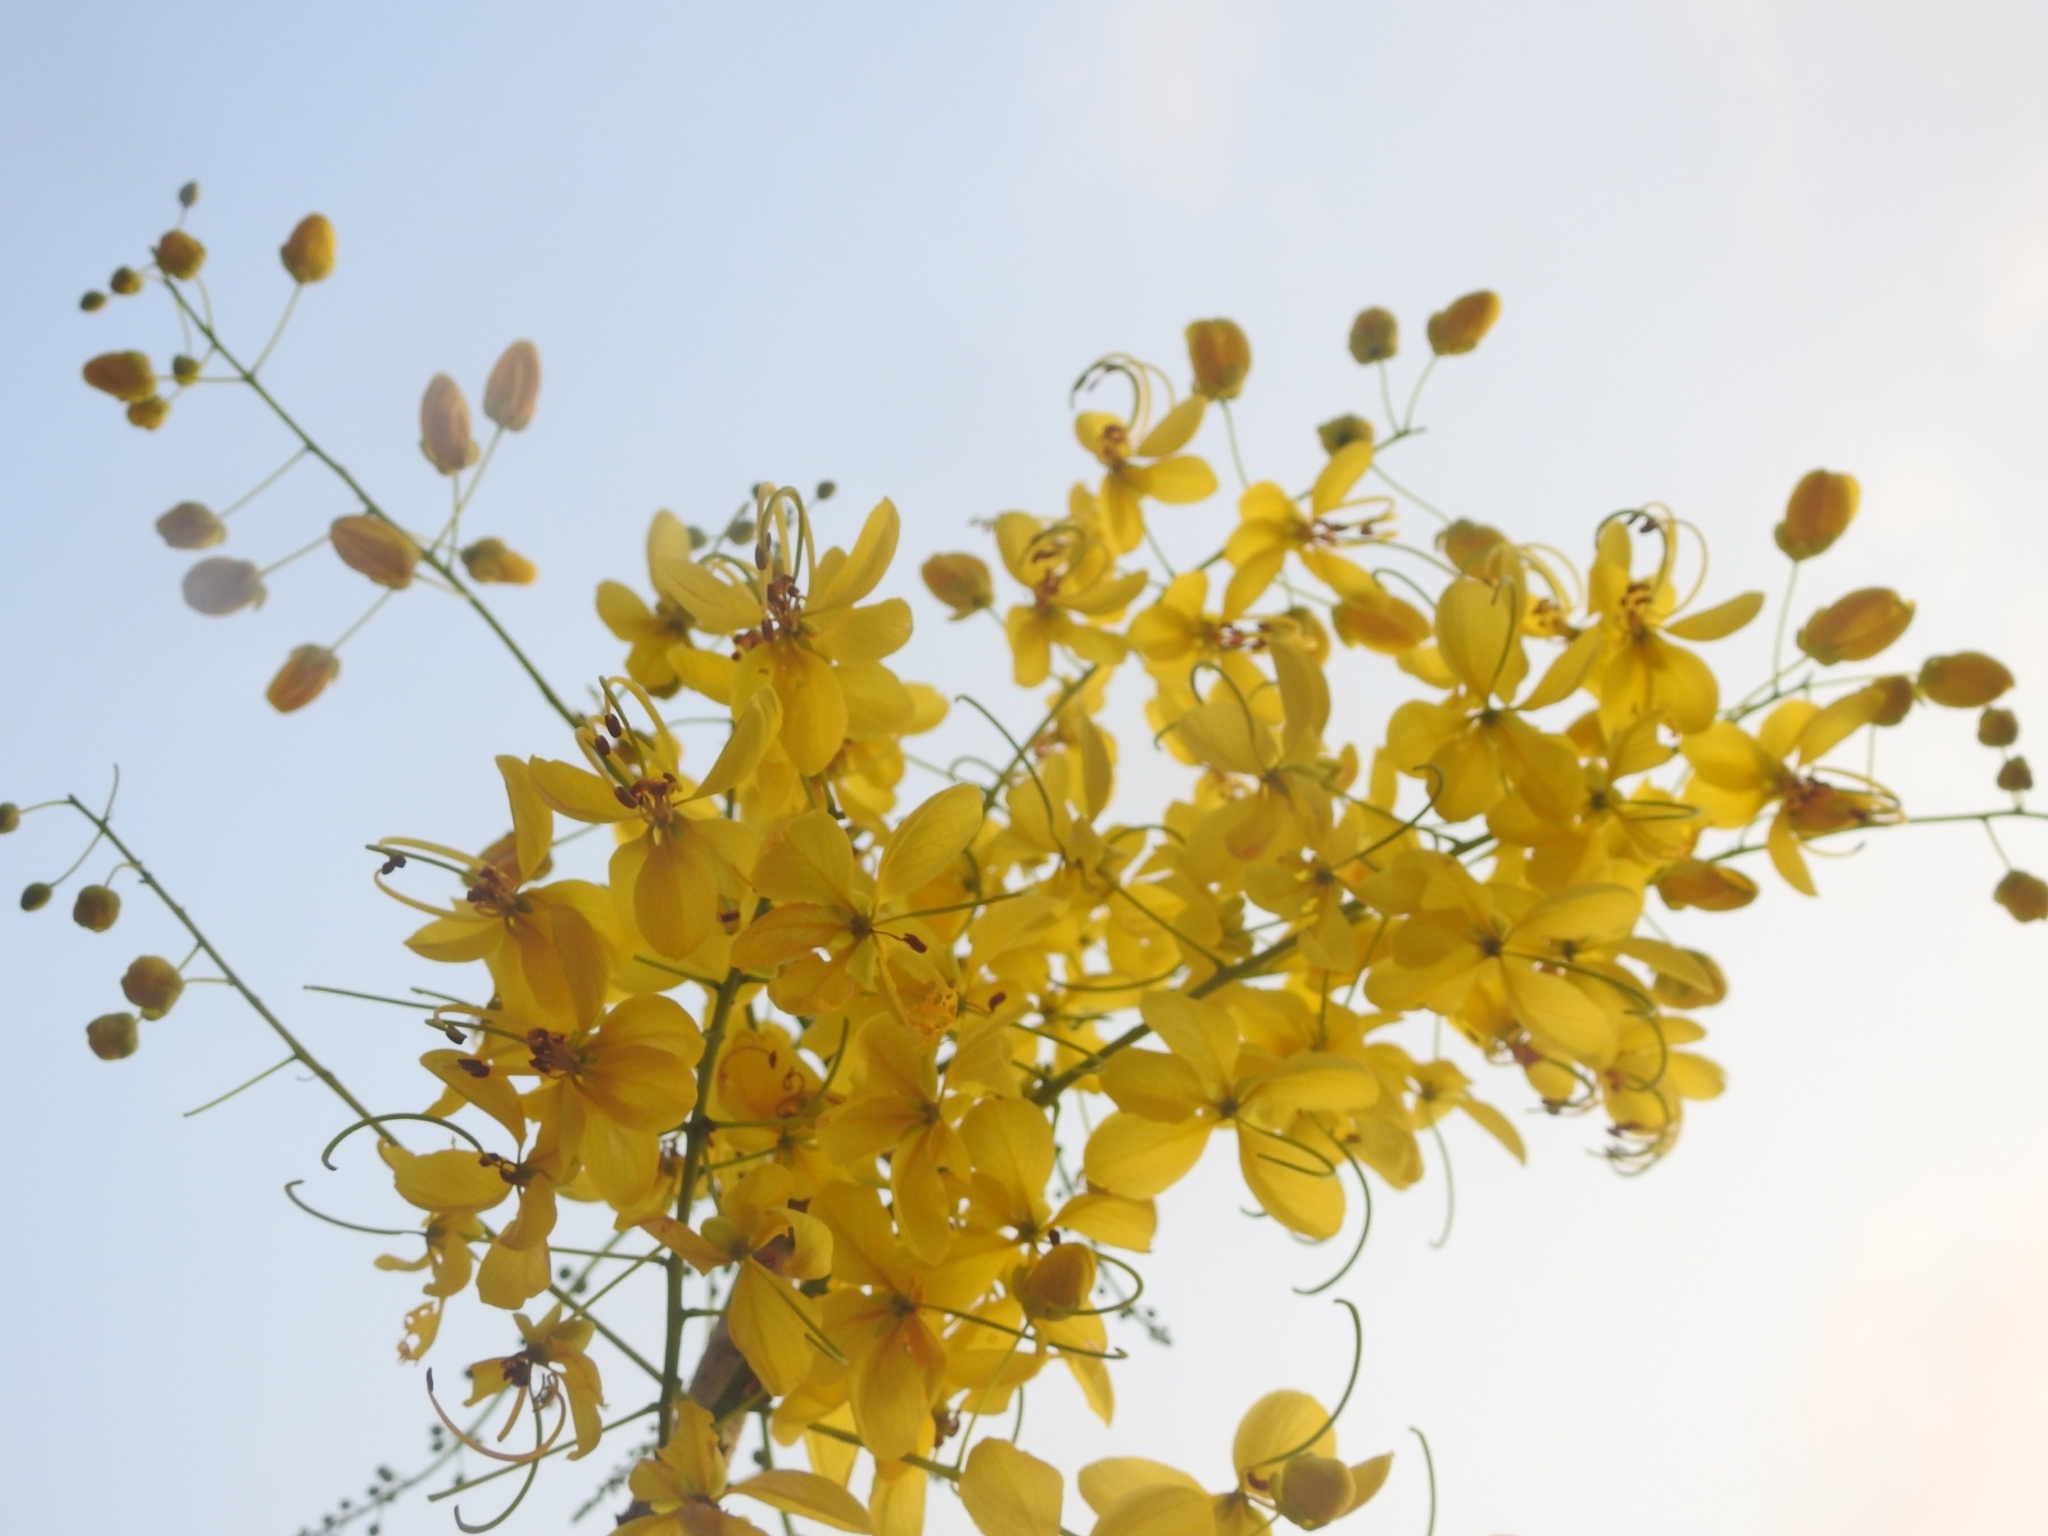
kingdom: Plantae
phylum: Tracheophyta
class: Magnoliopsida
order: Fabales
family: Fabaceae
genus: Cassia
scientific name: Cassia fistula
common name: Golden shower
